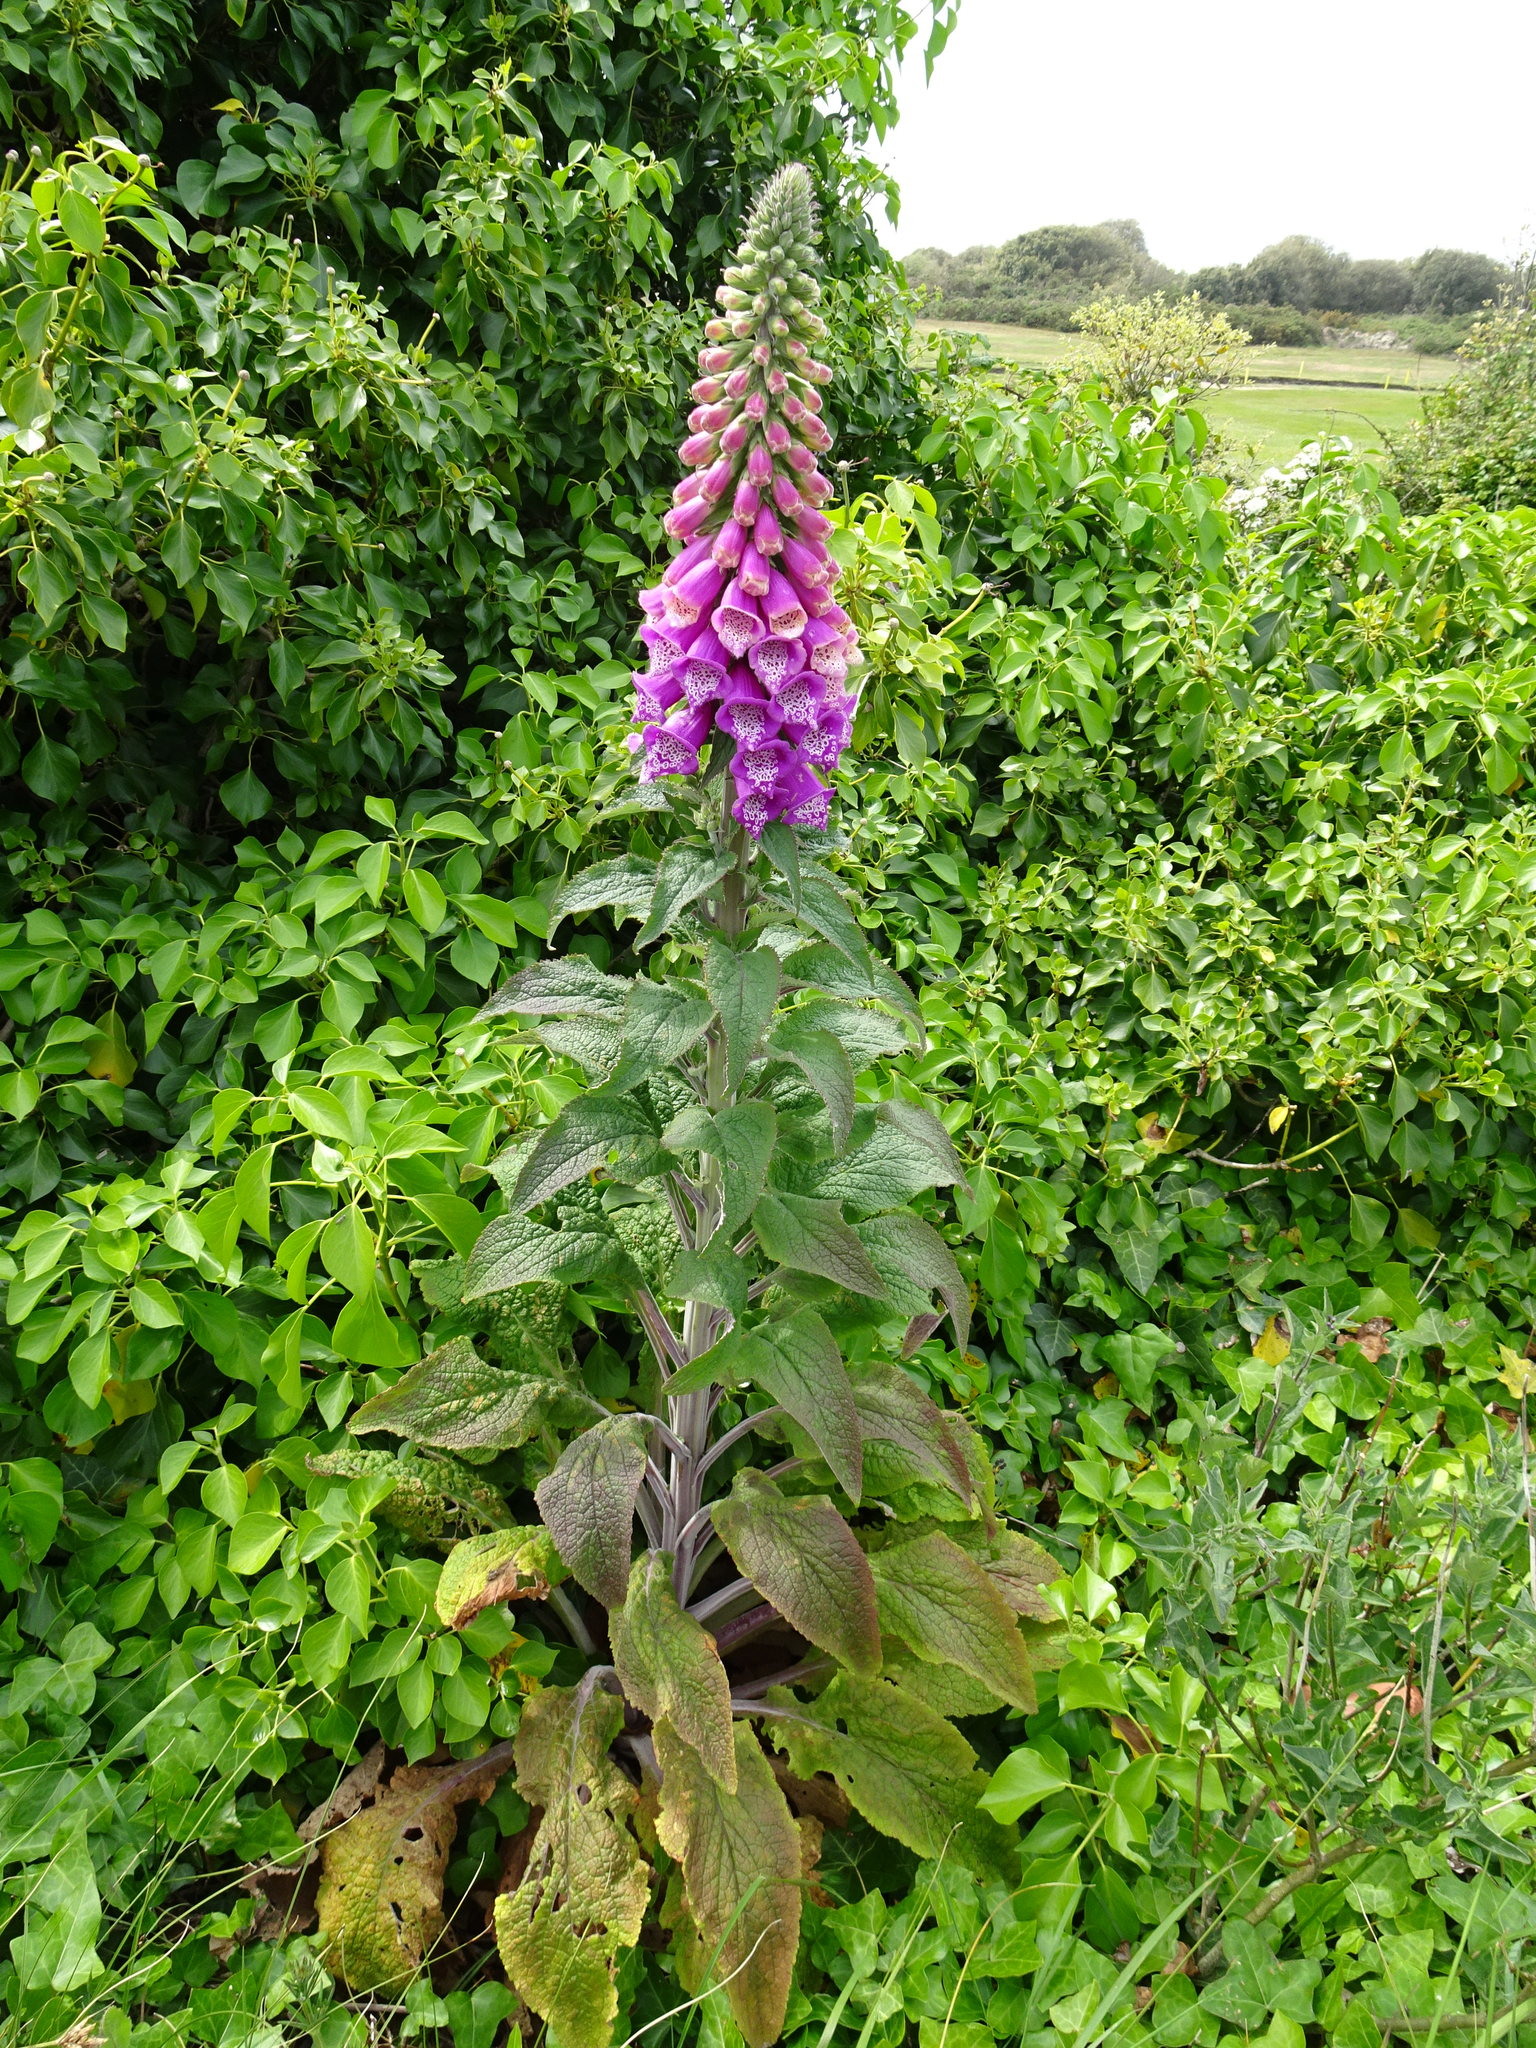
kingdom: Plantae
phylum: Tracheophyta
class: Magnoliopsida
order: Lamiales
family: Plantaginaceae
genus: Digitalis
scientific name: Digitalis purpurea
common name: Foxglove
